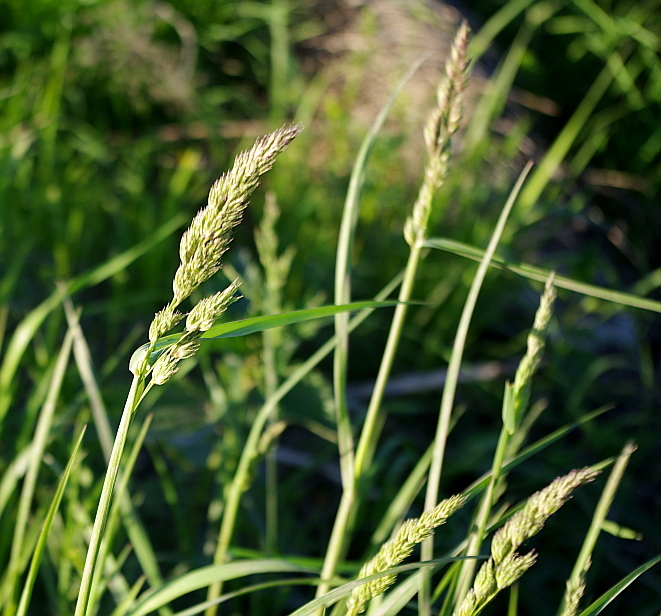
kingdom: Plantae
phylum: Tracheophyta
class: Liliopsida
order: Poales
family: Poaceae
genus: Dactylis
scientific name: Dactylis glomerata
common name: Orchardgrass
